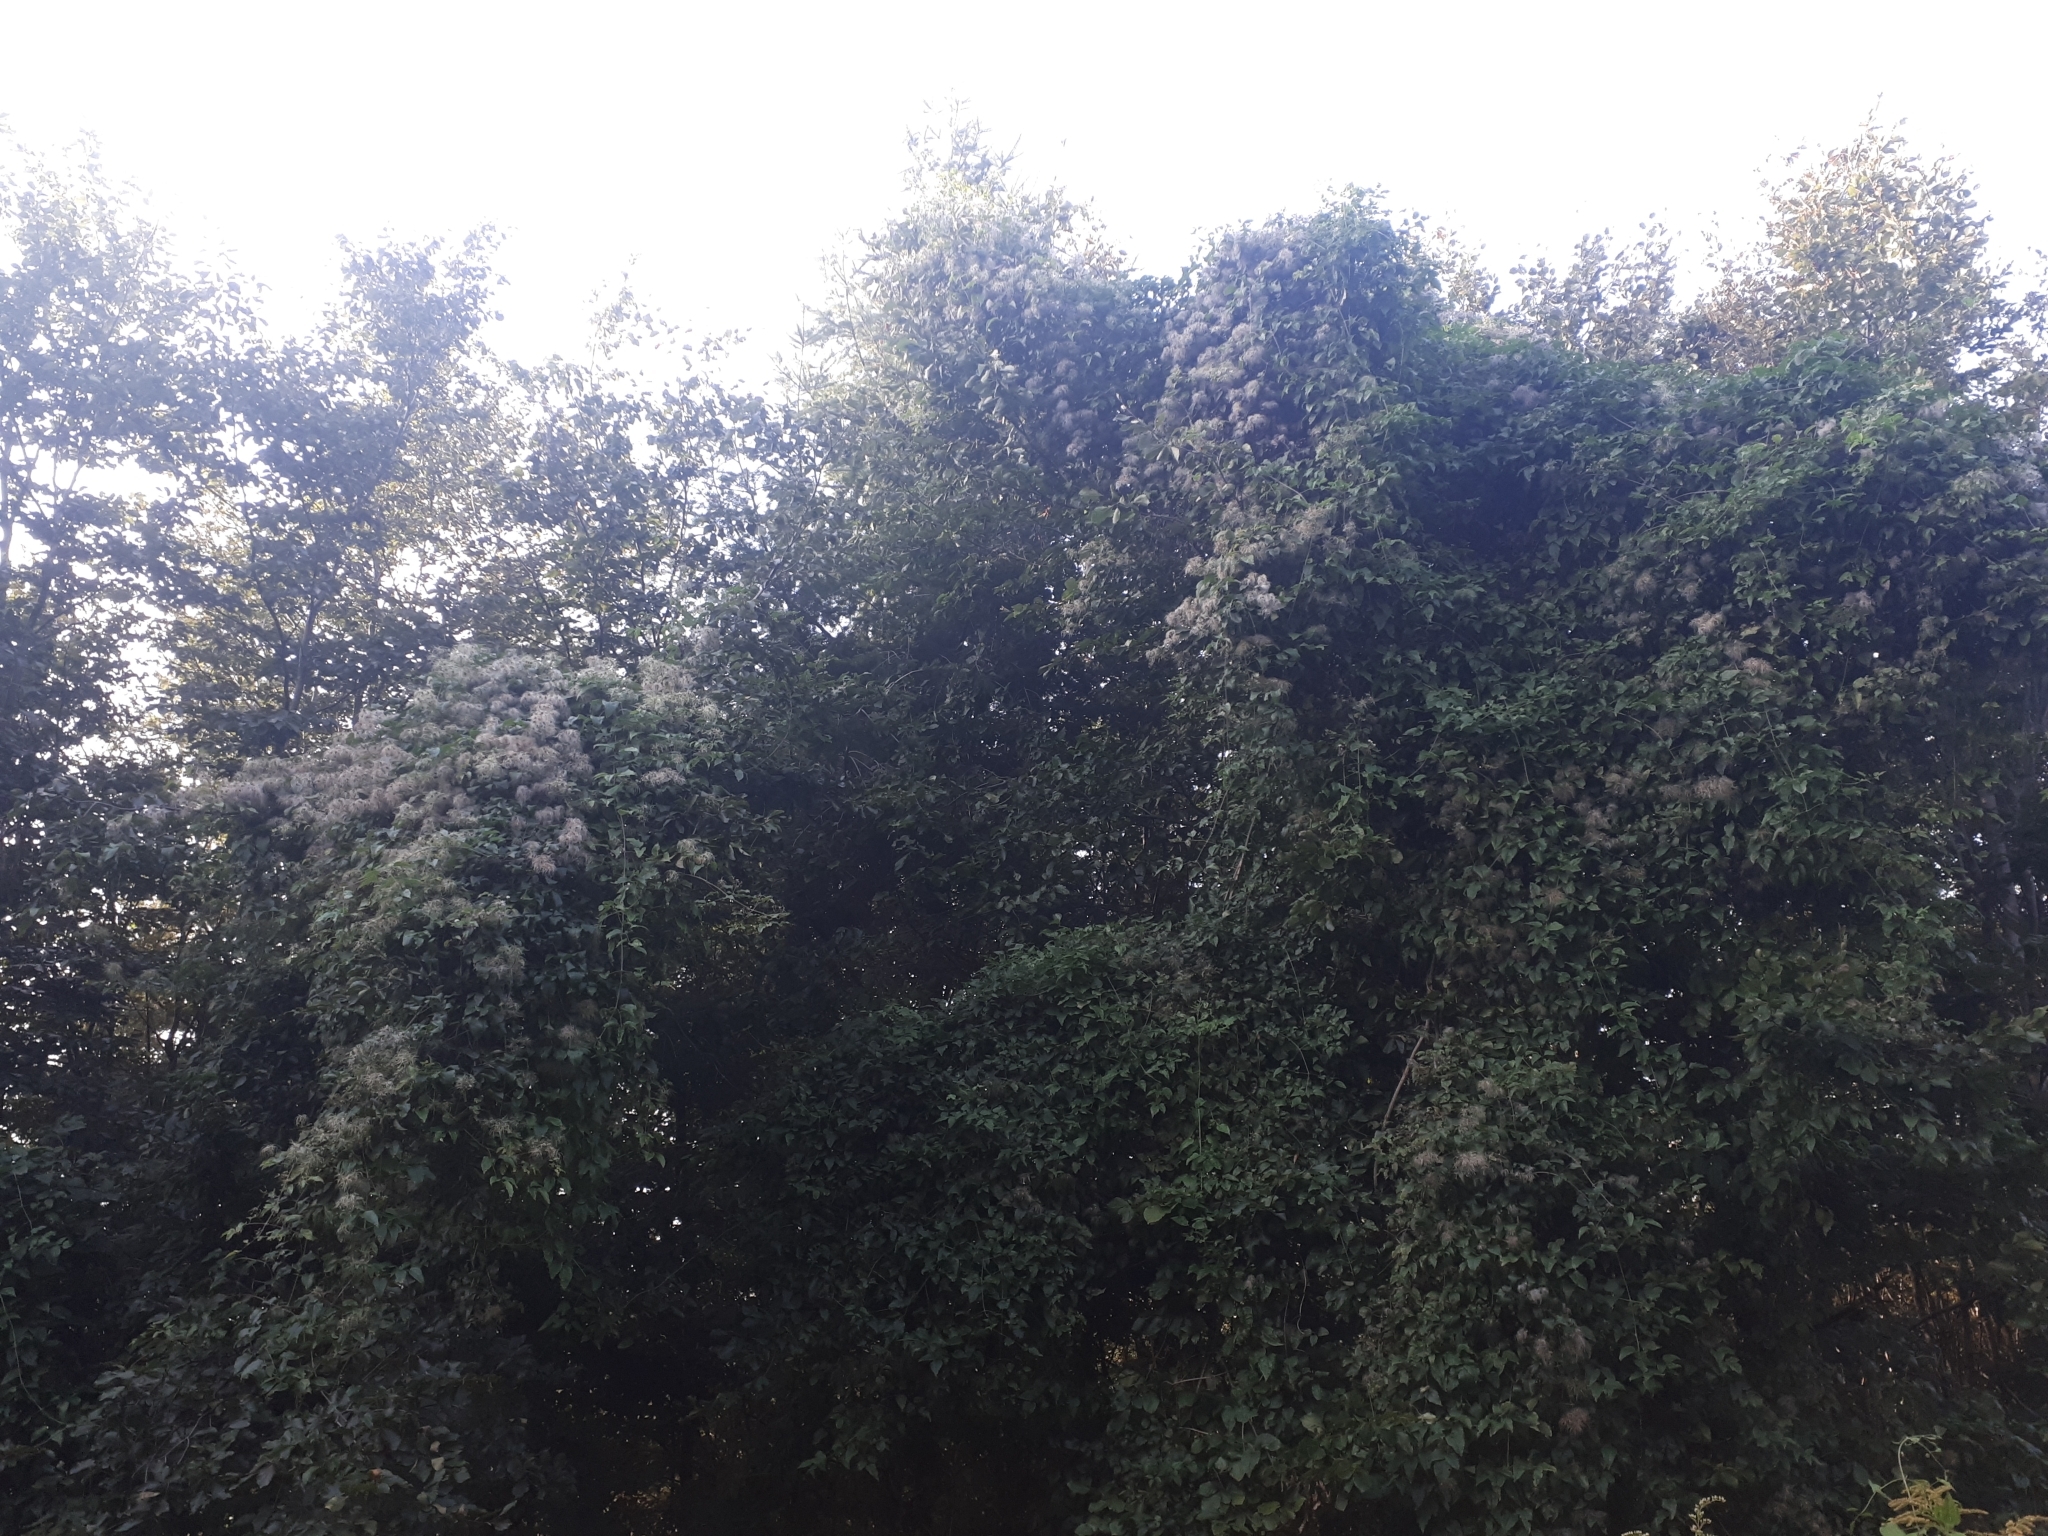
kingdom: Plantae
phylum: Tracheophyta
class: Magnoliopsida
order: Ranunculales
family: Ranunculaceae
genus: Clematis
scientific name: Clematis vitalba
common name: Evergreen clematis
